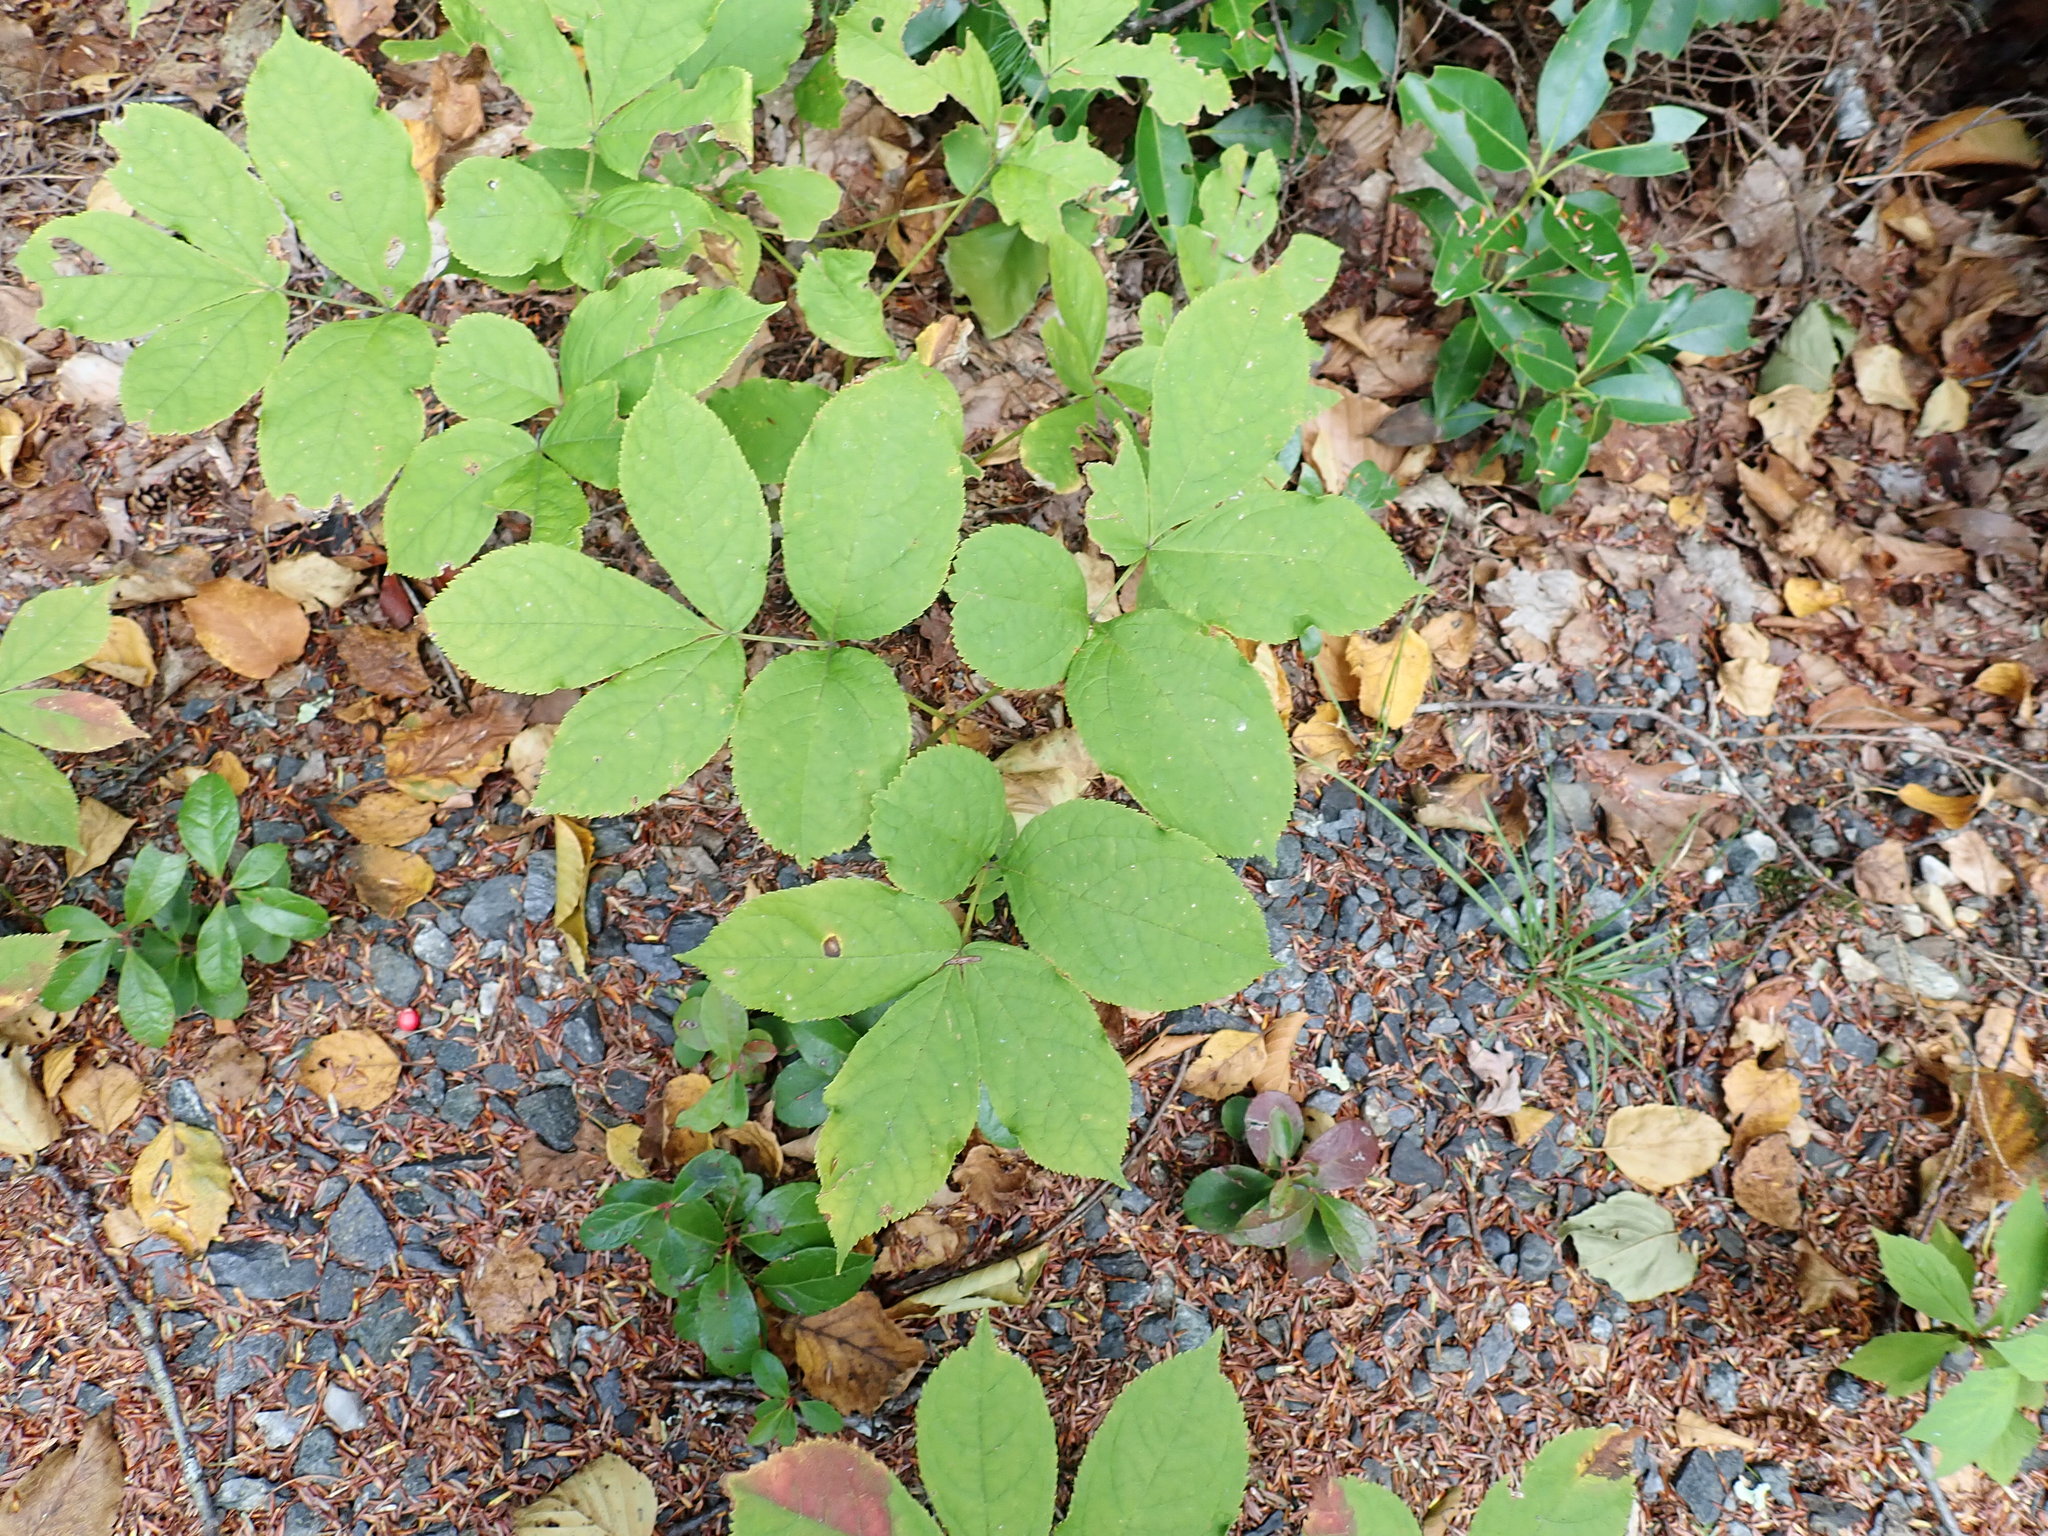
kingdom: Plantae
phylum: Tracheophyta
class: Magnoliopsida
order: Apiales
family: Araliaceae
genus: Aralia
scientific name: Aralia nudicaulis
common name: Wild sarsaparilla
